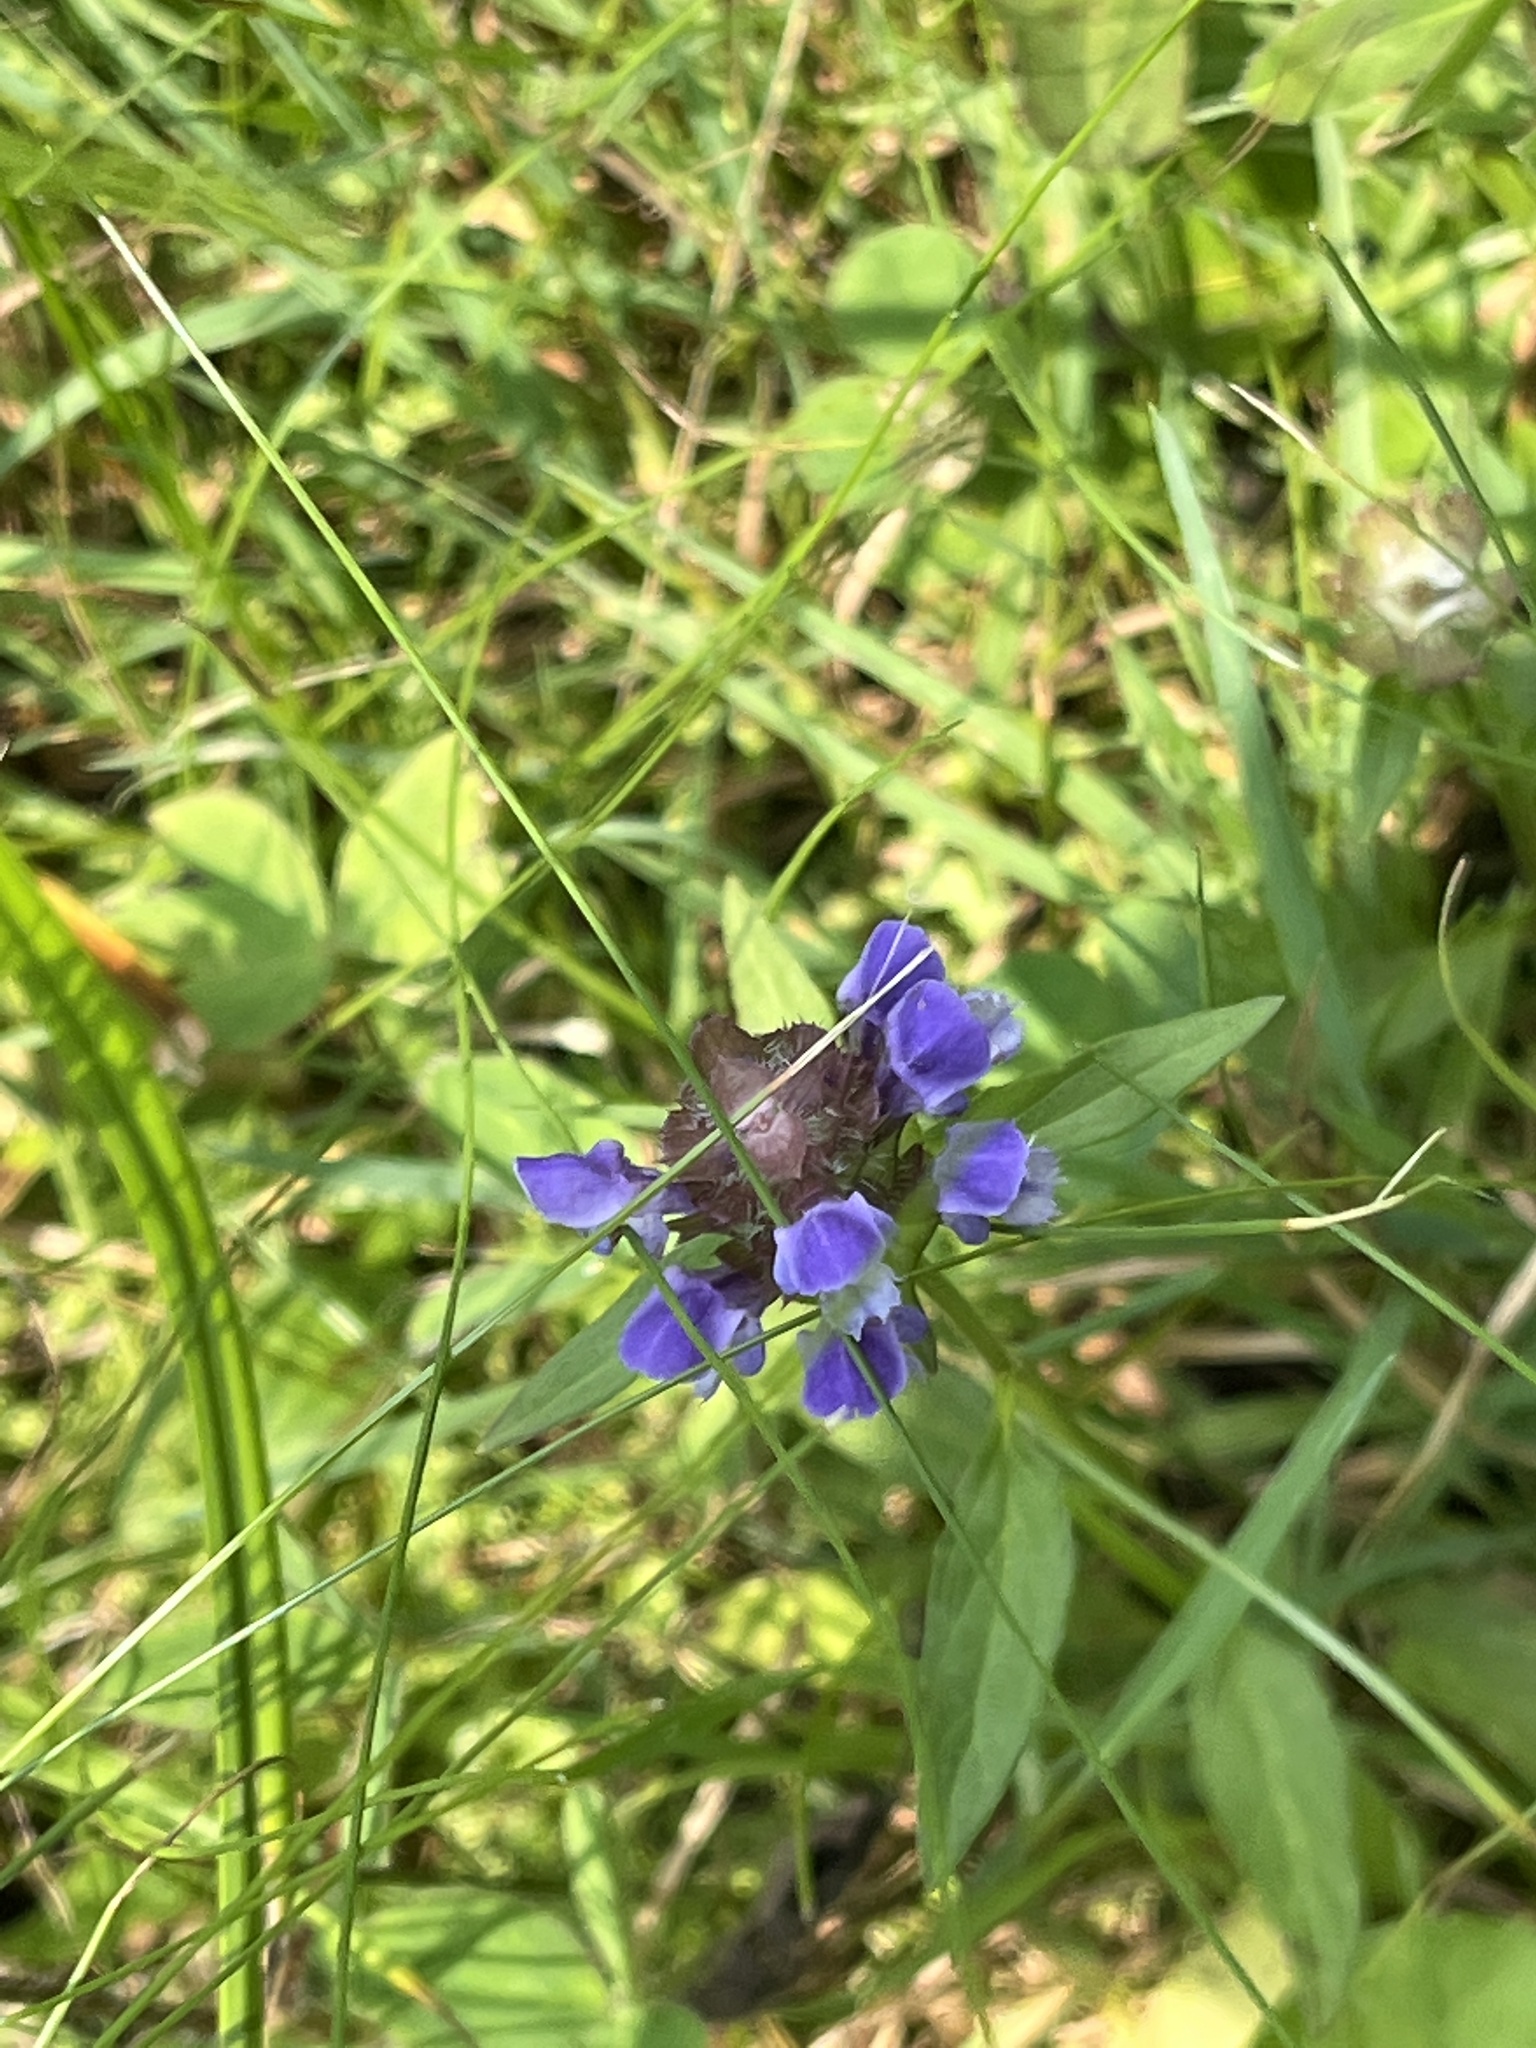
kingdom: Plantae
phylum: Tracheophyta
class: Magnoliopsida
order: Lamiales
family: Lamiaceae
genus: Prunella
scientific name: Prunella vulgaris
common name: Heal-all
